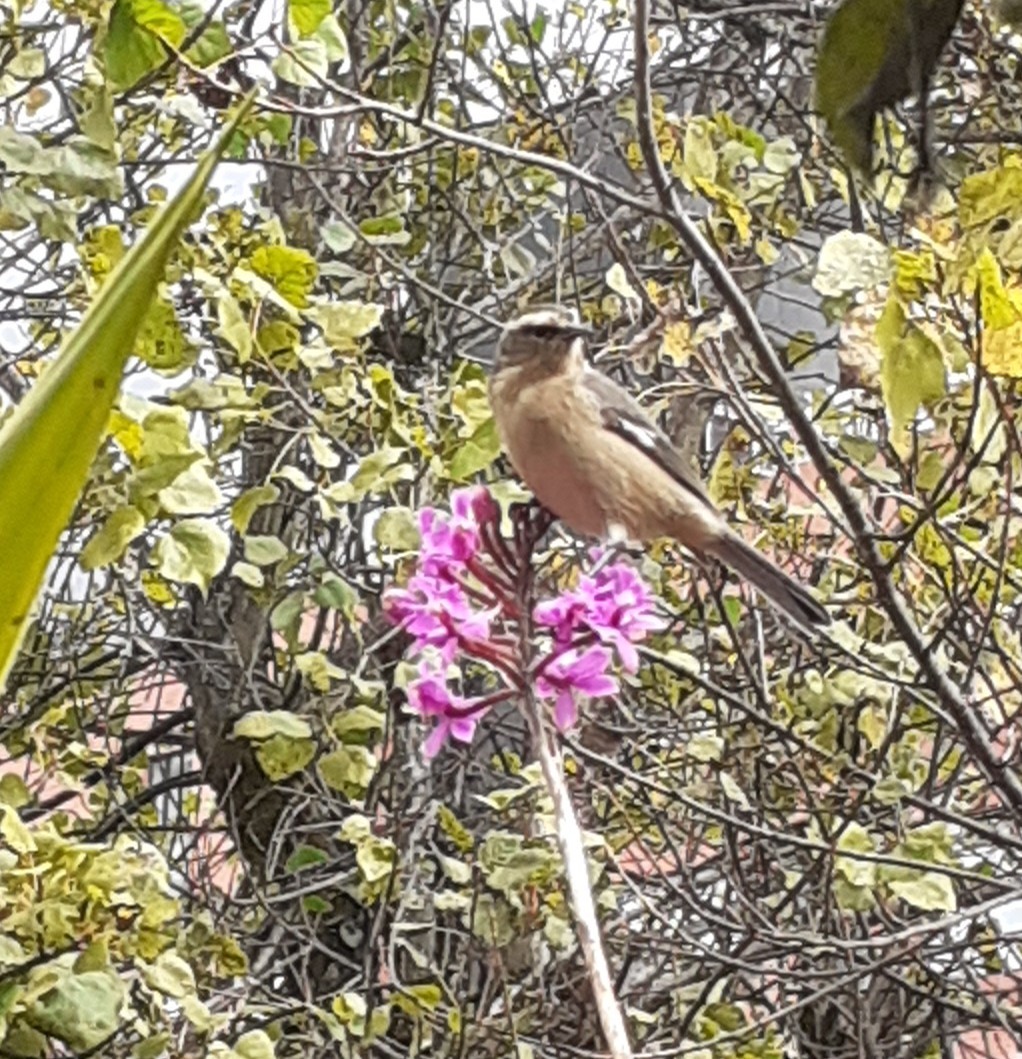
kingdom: Animalia
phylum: Chordata
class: Aves
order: Passeriformes
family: Thraupidae
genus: Conirostrum
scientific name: Conirostrum cinereum
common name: Cinereous conebill
